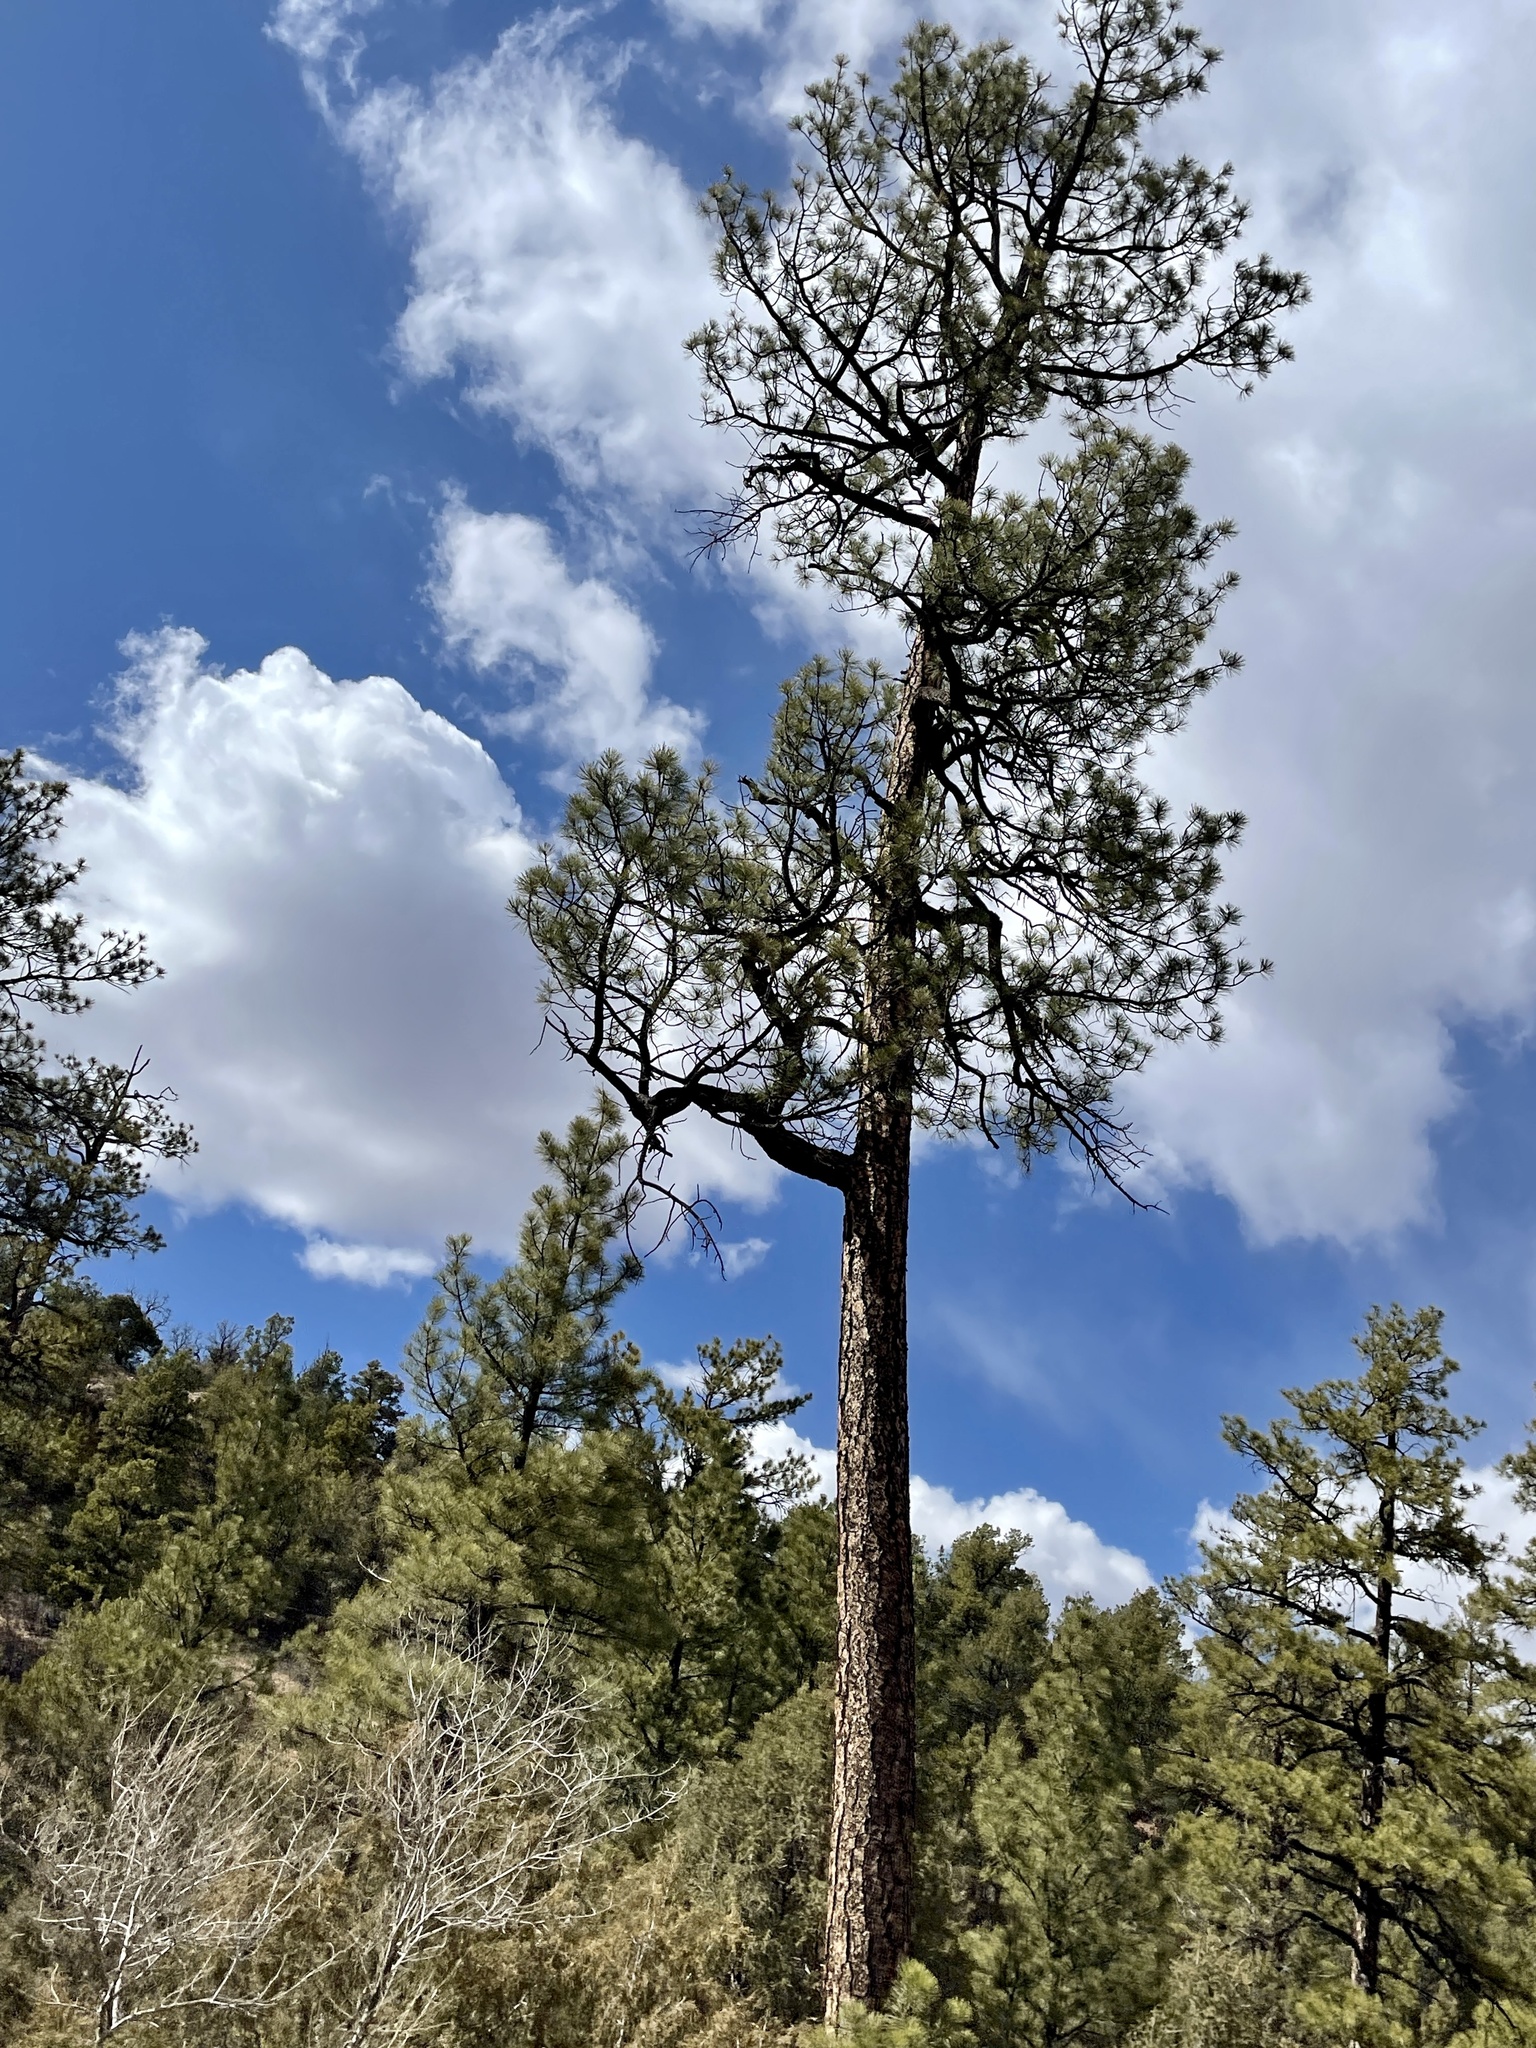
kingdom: Plantae
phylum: Tracheophyta
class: Pinopsida
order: Pinales
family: Pinaceae
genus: Pinus
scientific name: Pinus ponderosa
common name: Western yellow-pine
